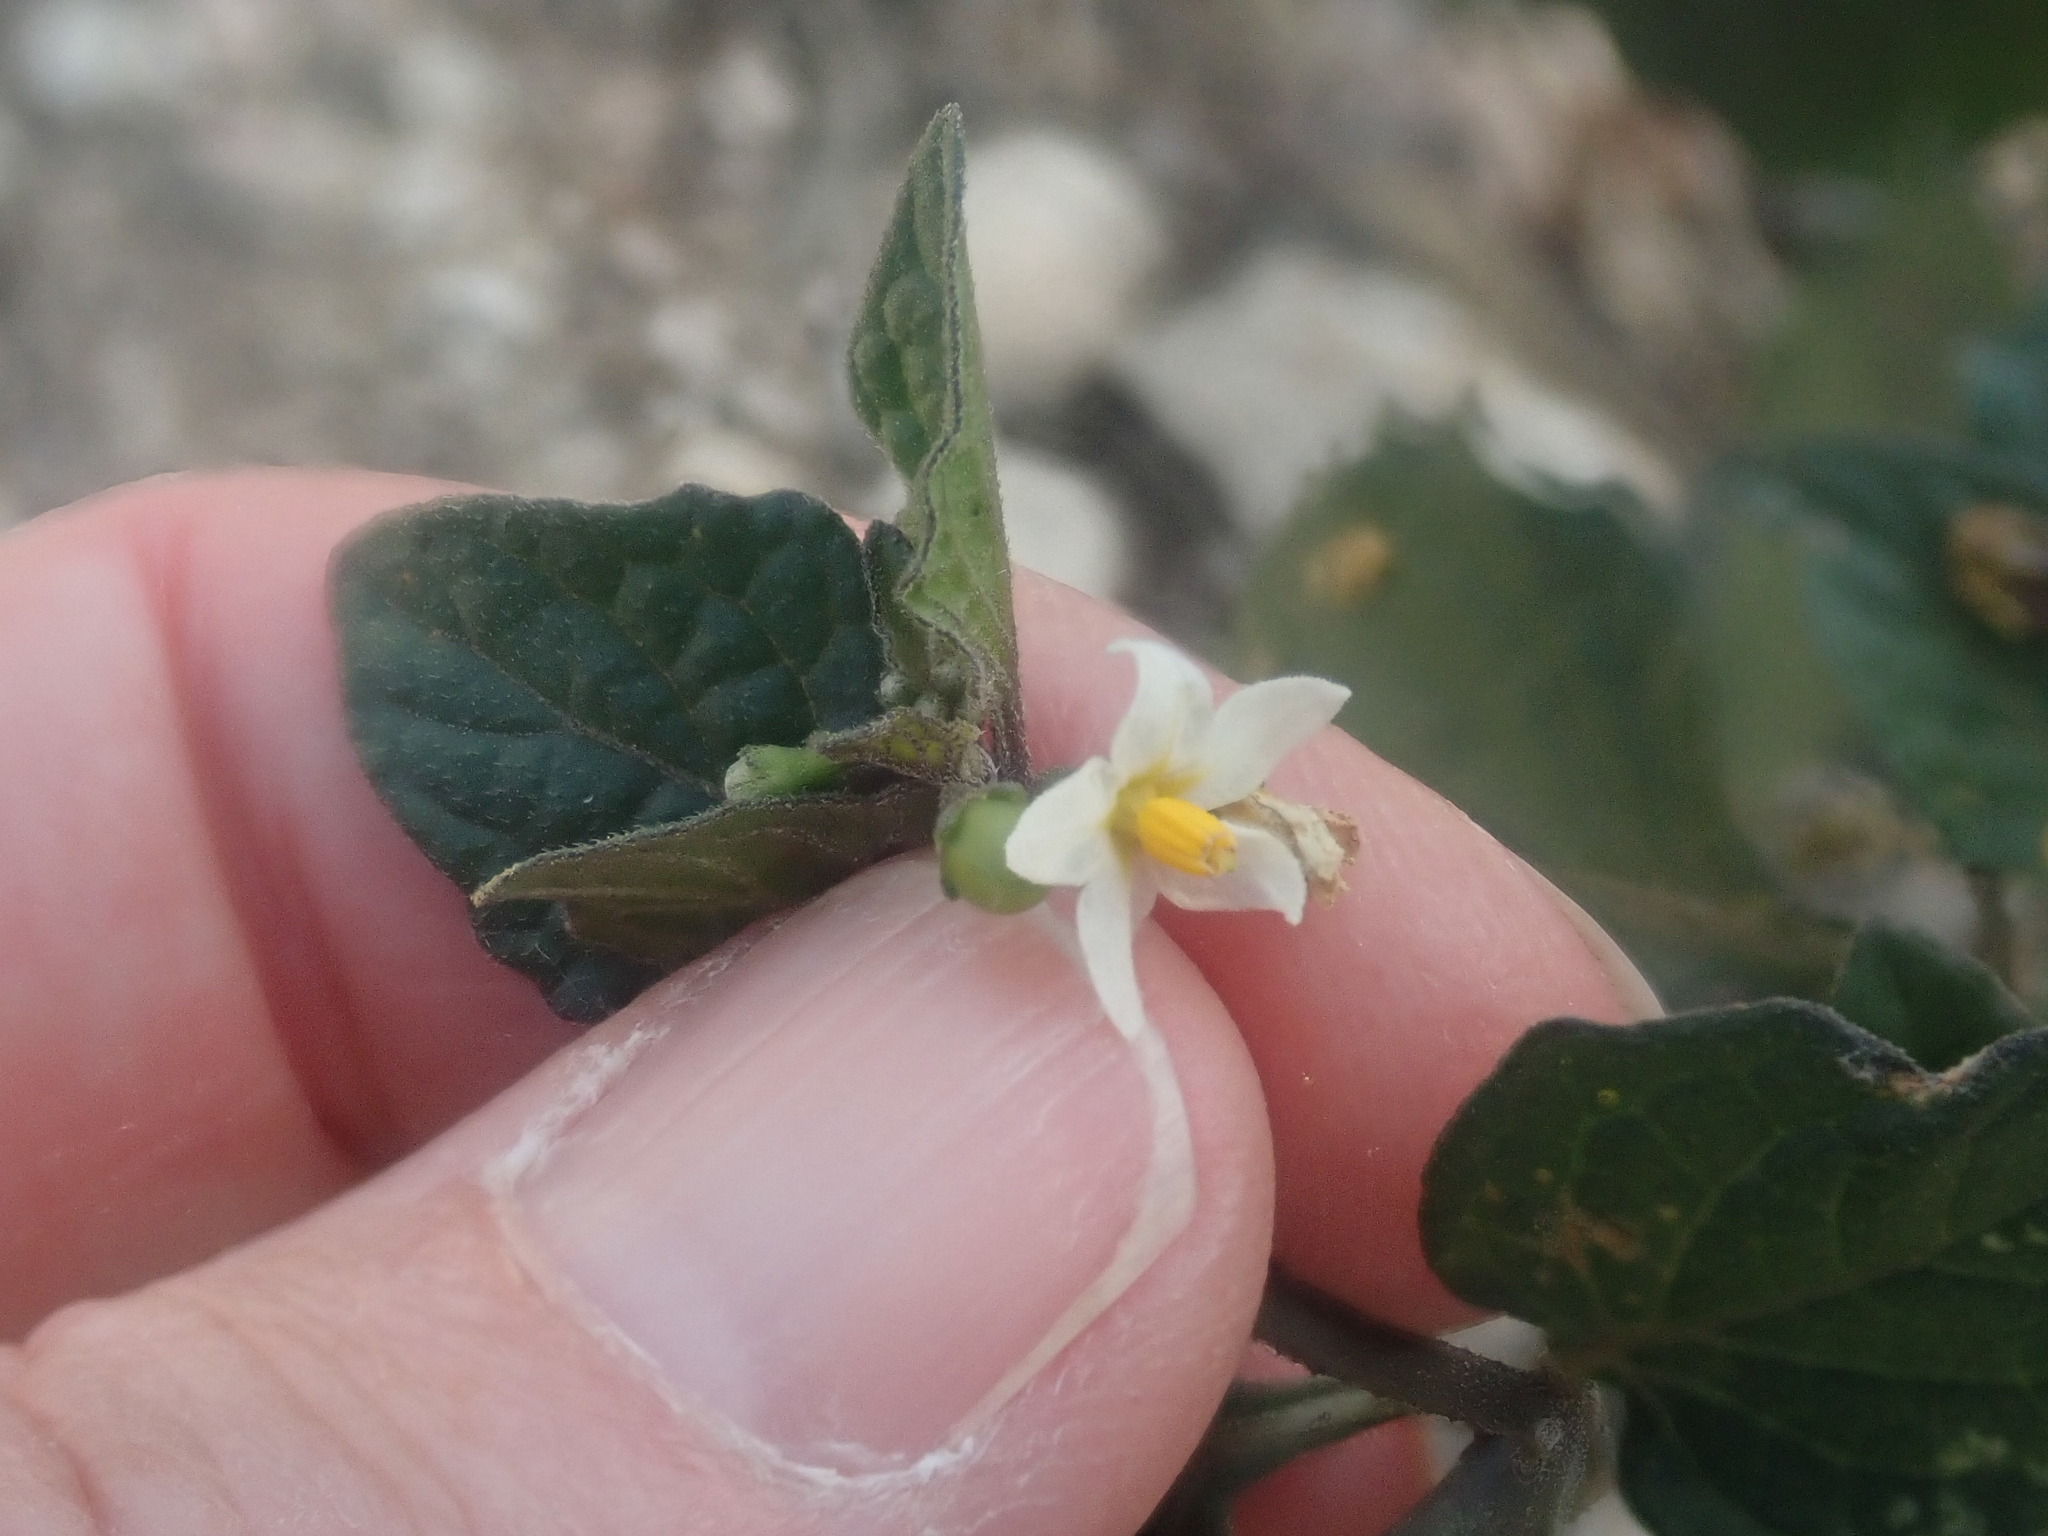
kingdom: Plantae
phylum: Tracheophyta
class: Magnoliopsida
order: Solanales
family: Solanaceae
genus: Solanum
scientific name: Solanum nigrum
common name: Black nightshade
